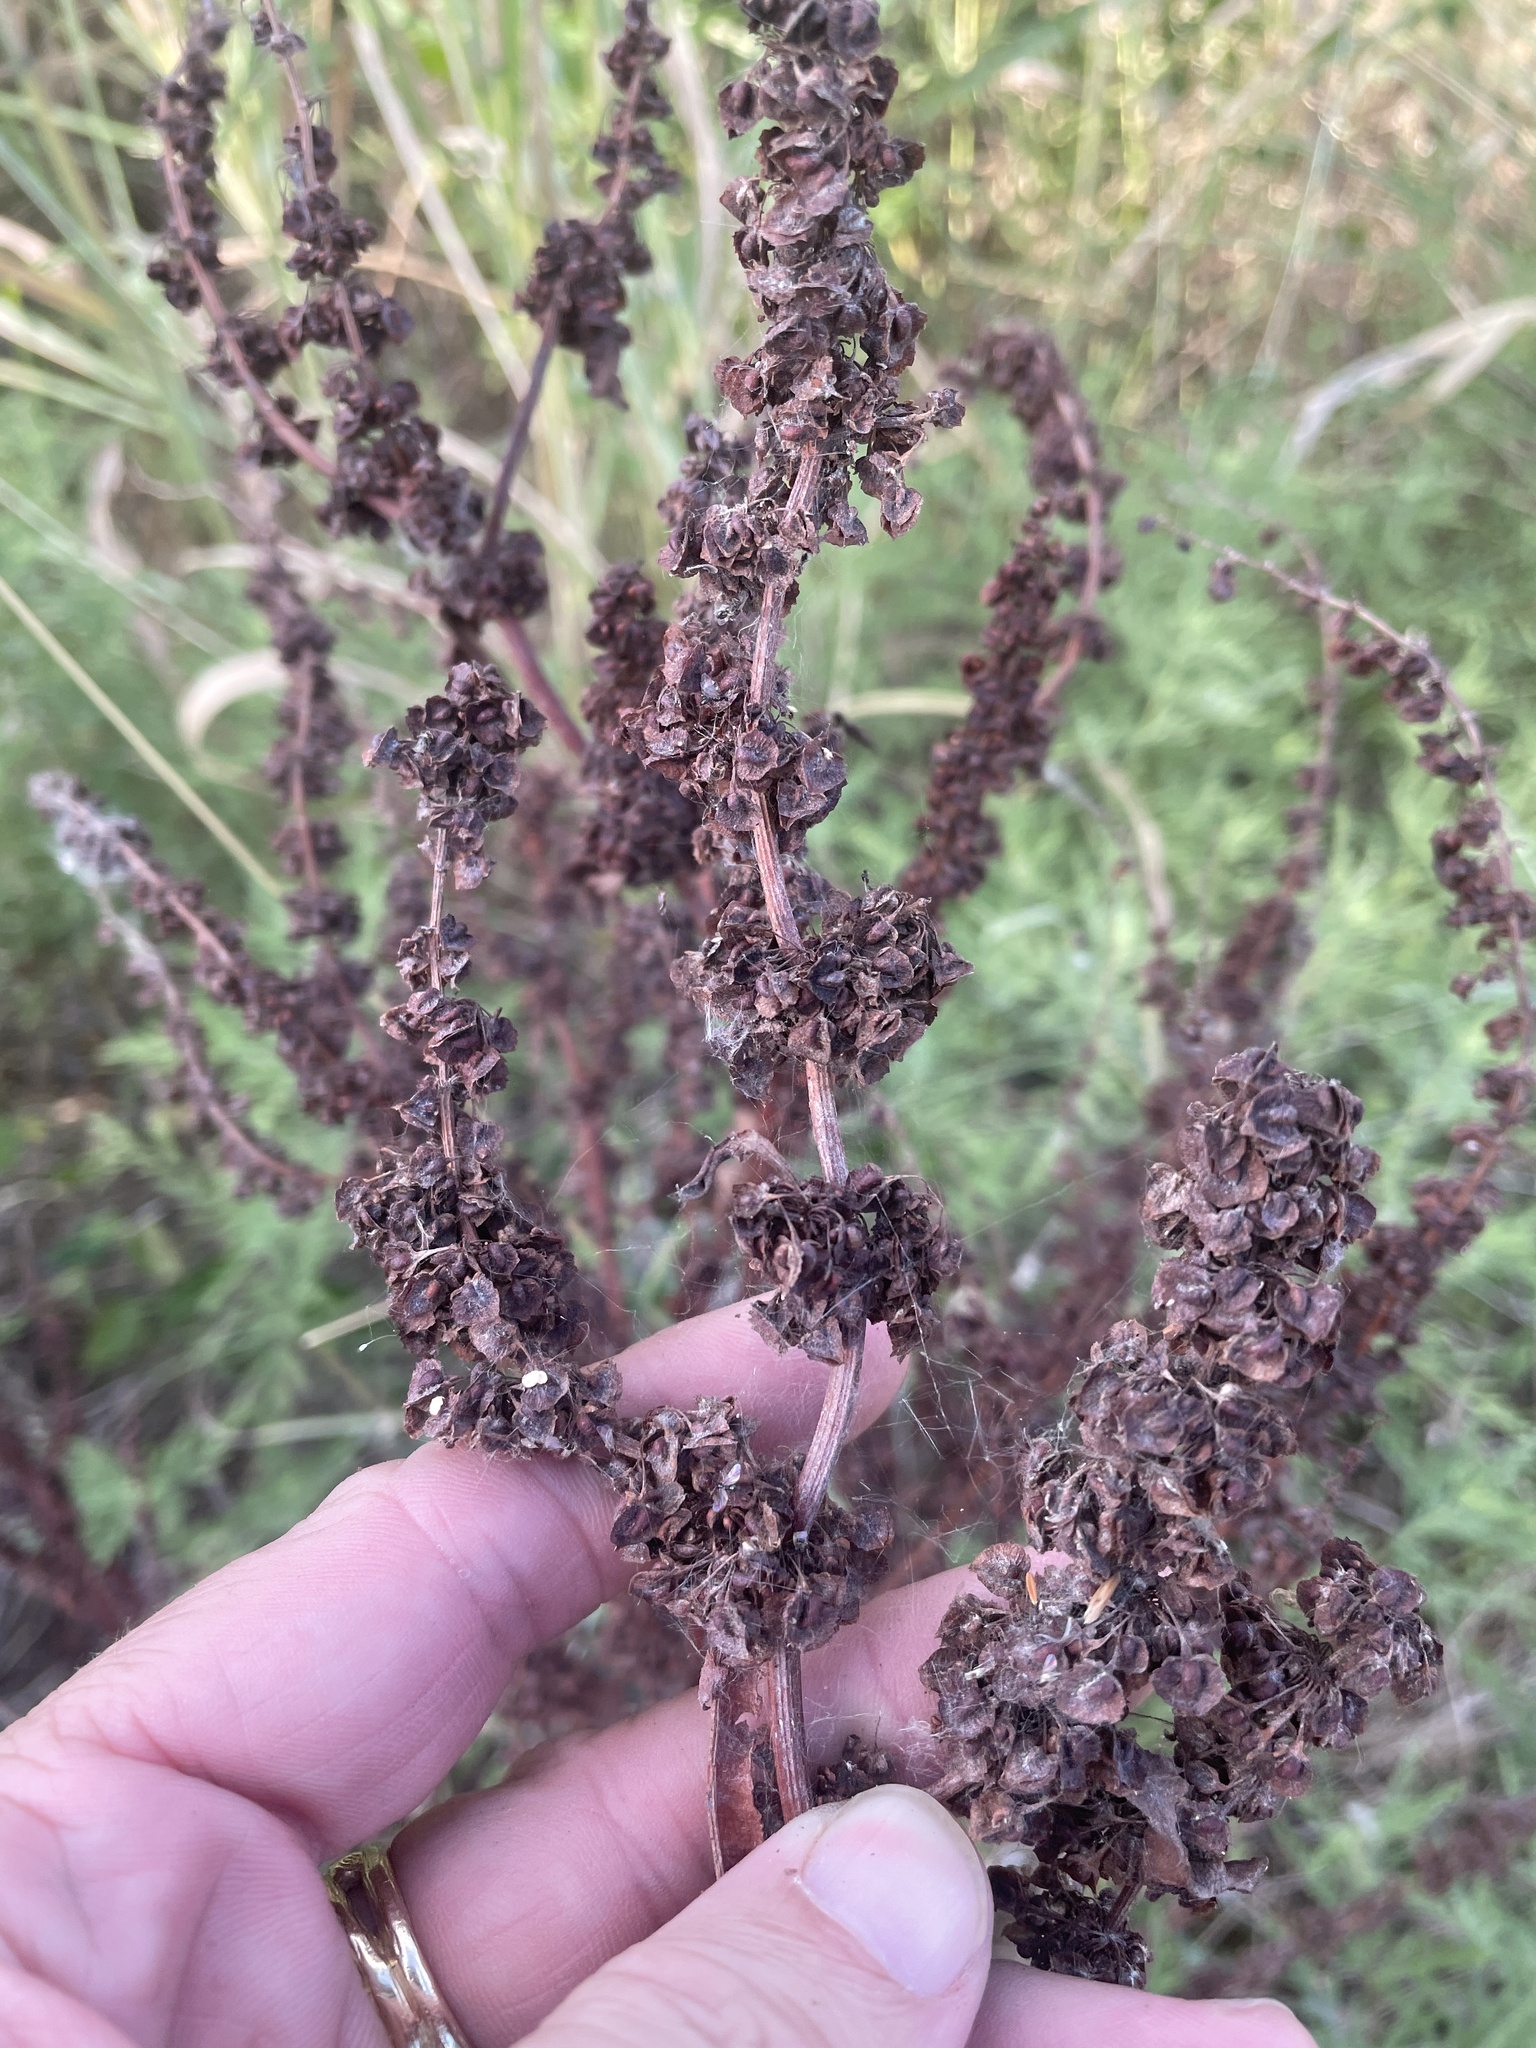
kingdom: Plantae
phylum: Tracheophyta
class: Magnoliopsida
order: Caryophyllales
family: Polygonaceae
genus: Rumex
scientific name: Rumex crispus
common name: Curled dock
